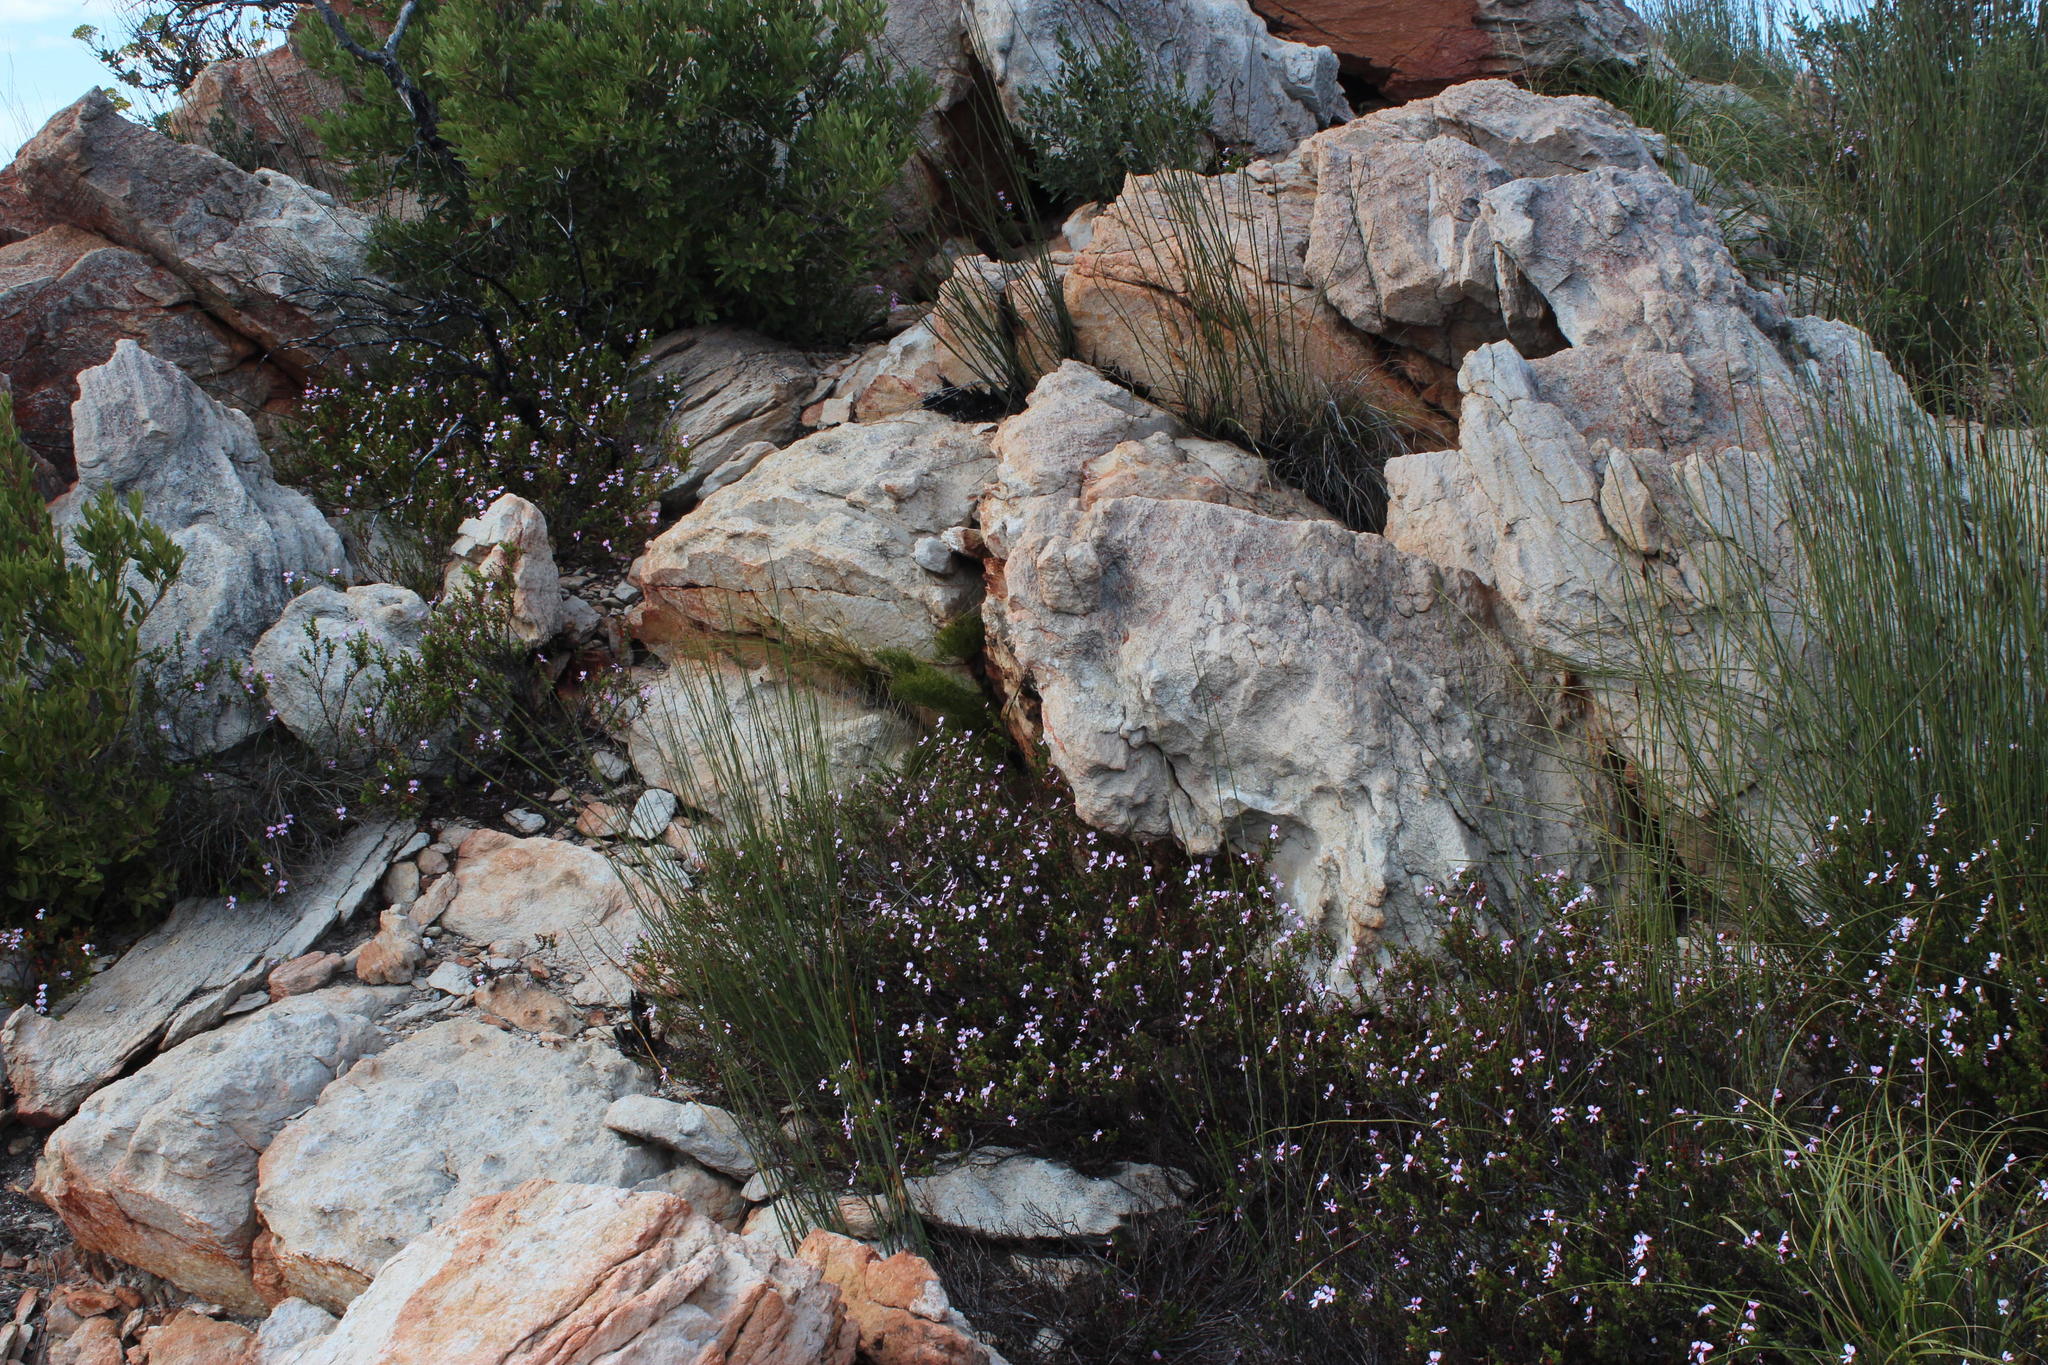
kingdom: Plantae
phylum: Tracheophyta
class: Magnoliopsida
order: Geraniales
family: Geraniaceae
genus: Pelargonium
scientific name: Pelargonium fruticosum
